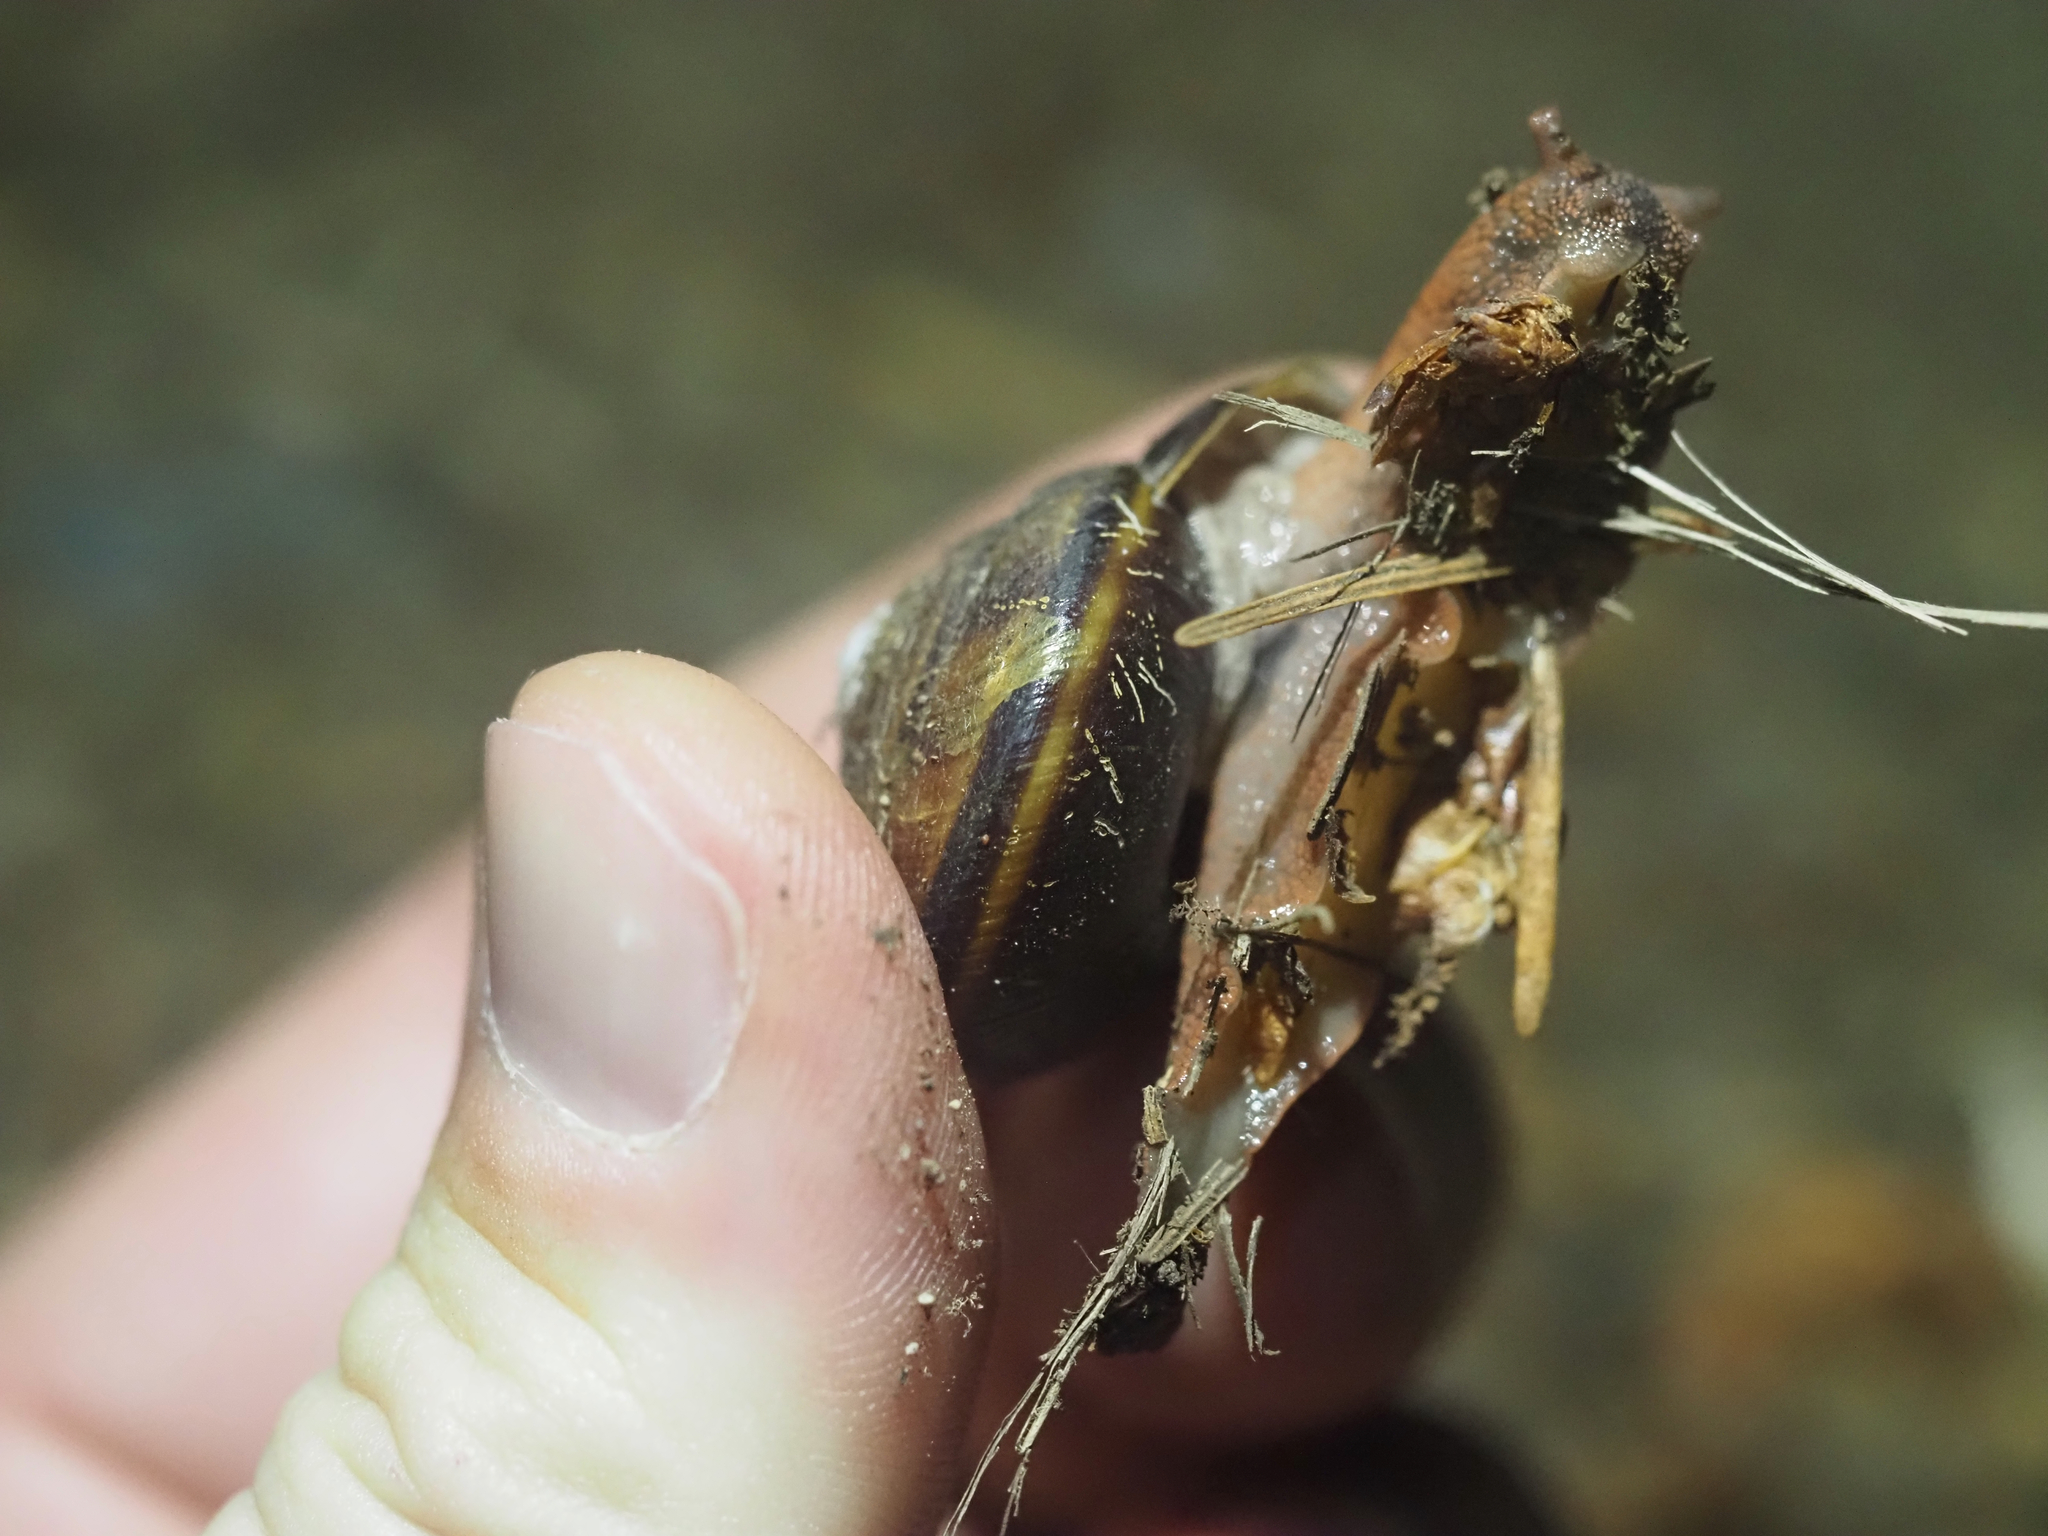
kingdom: Animalia
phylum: Mollusca
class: Gastropoda
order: Stylommatophora
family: Xanthonychidae
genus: Monadenia
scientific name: Monadenia fidelis
